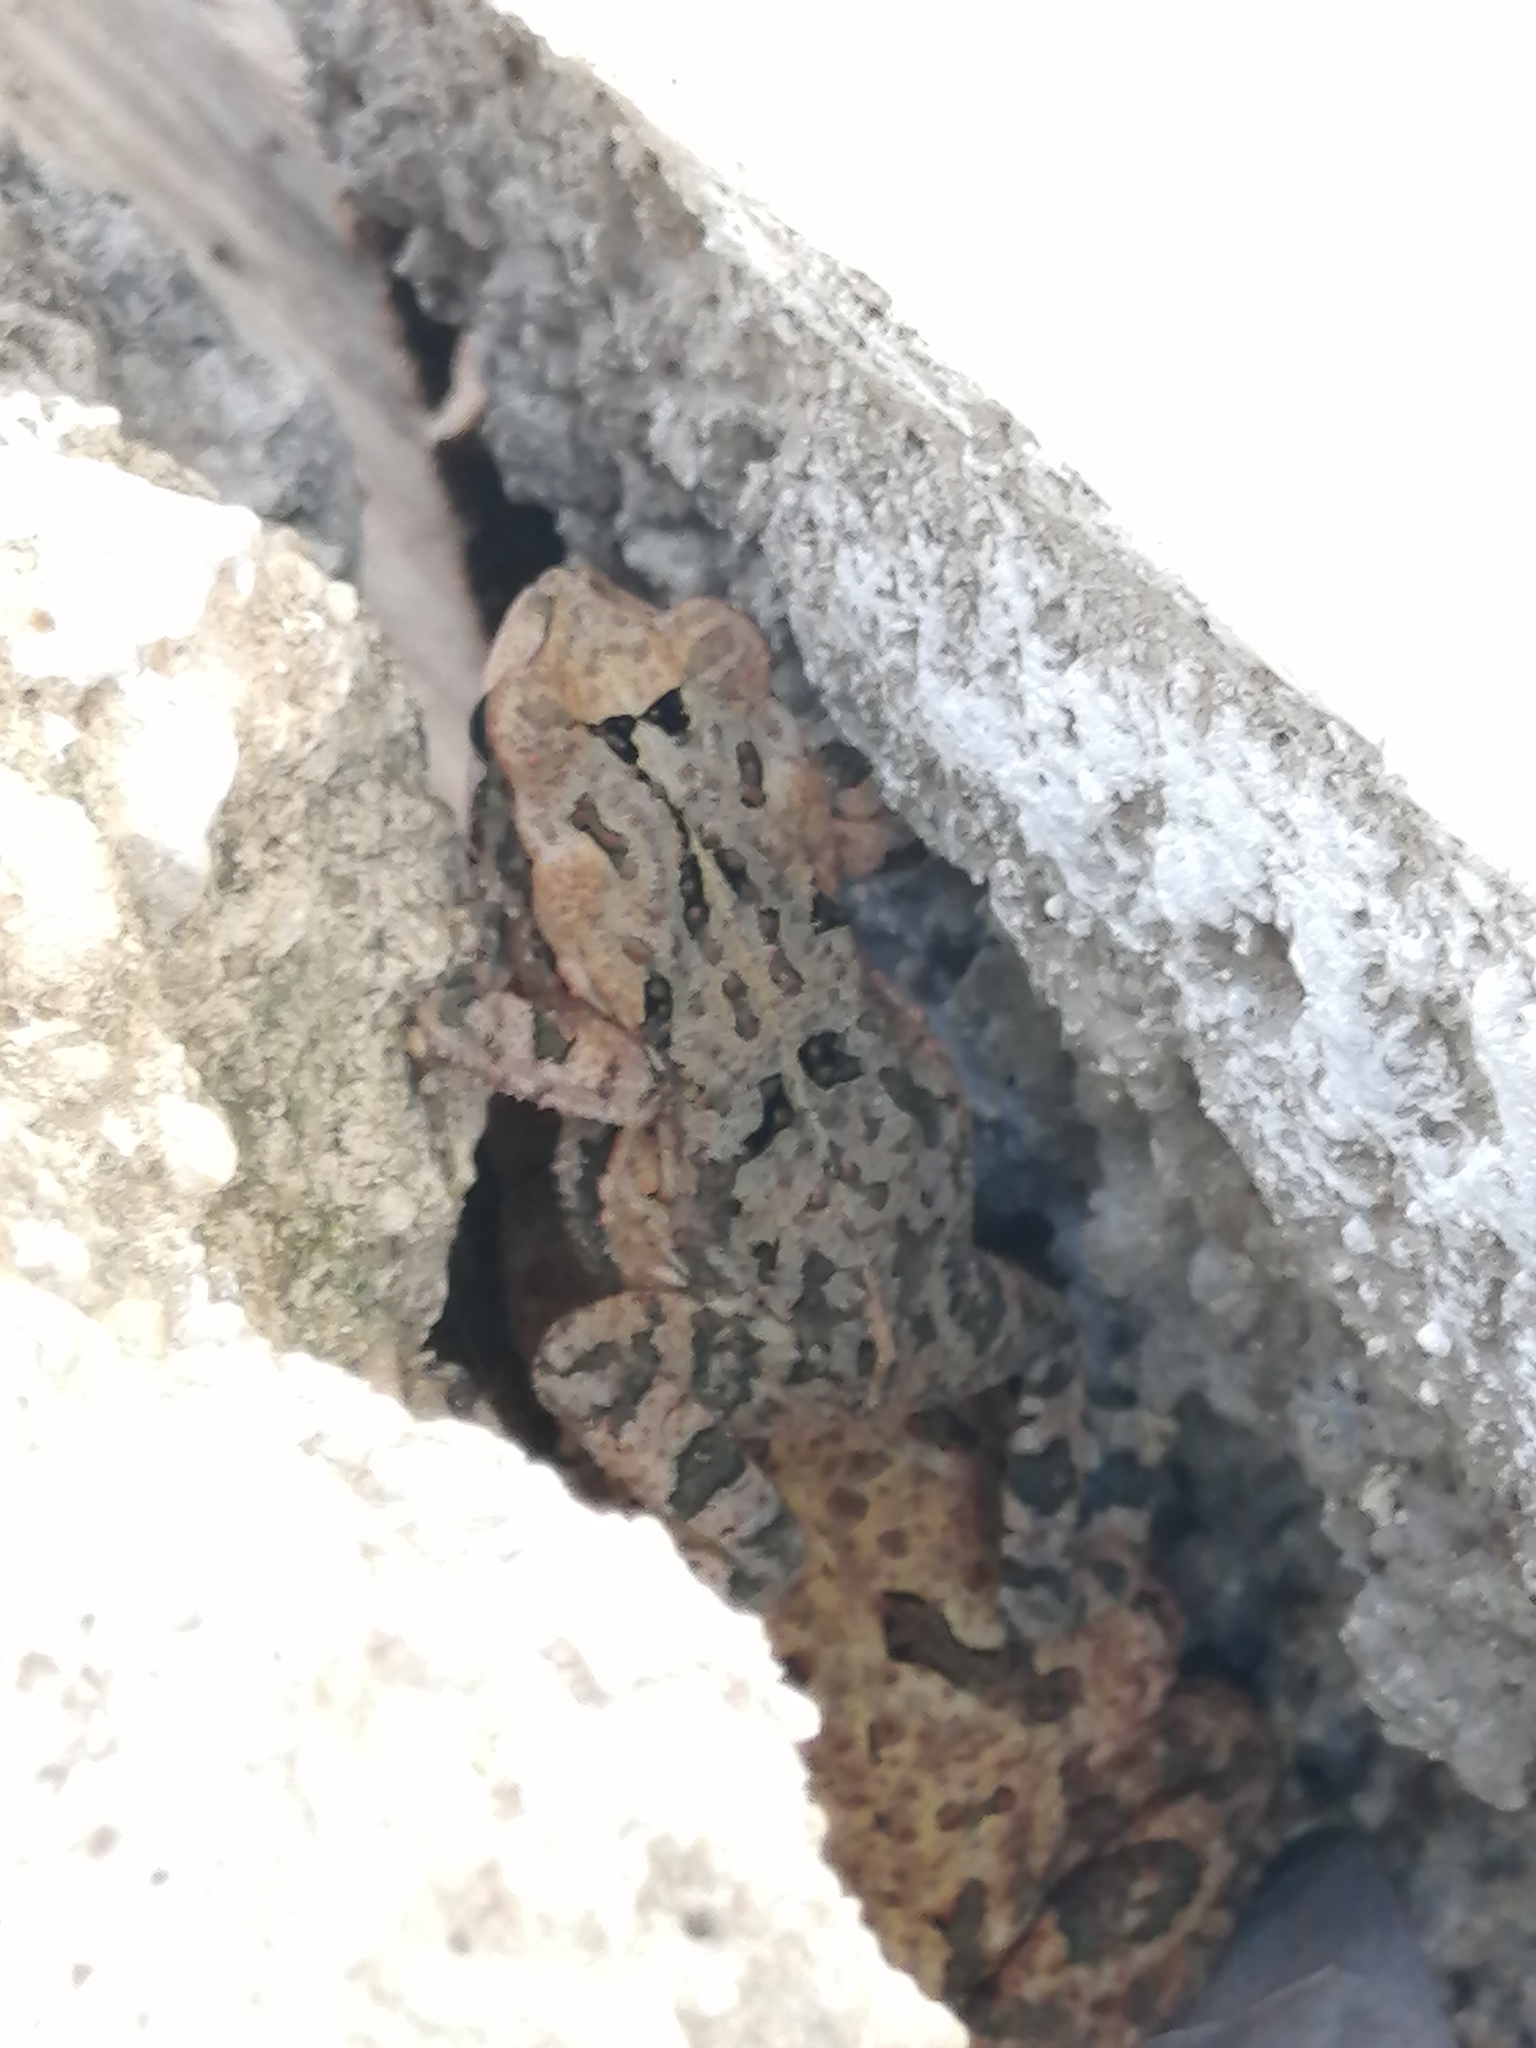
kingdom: Animalia
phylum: Chordata
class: Amphibia
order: Anura
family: Bufonidae
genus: Incilius
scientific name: Incilius valliceps
